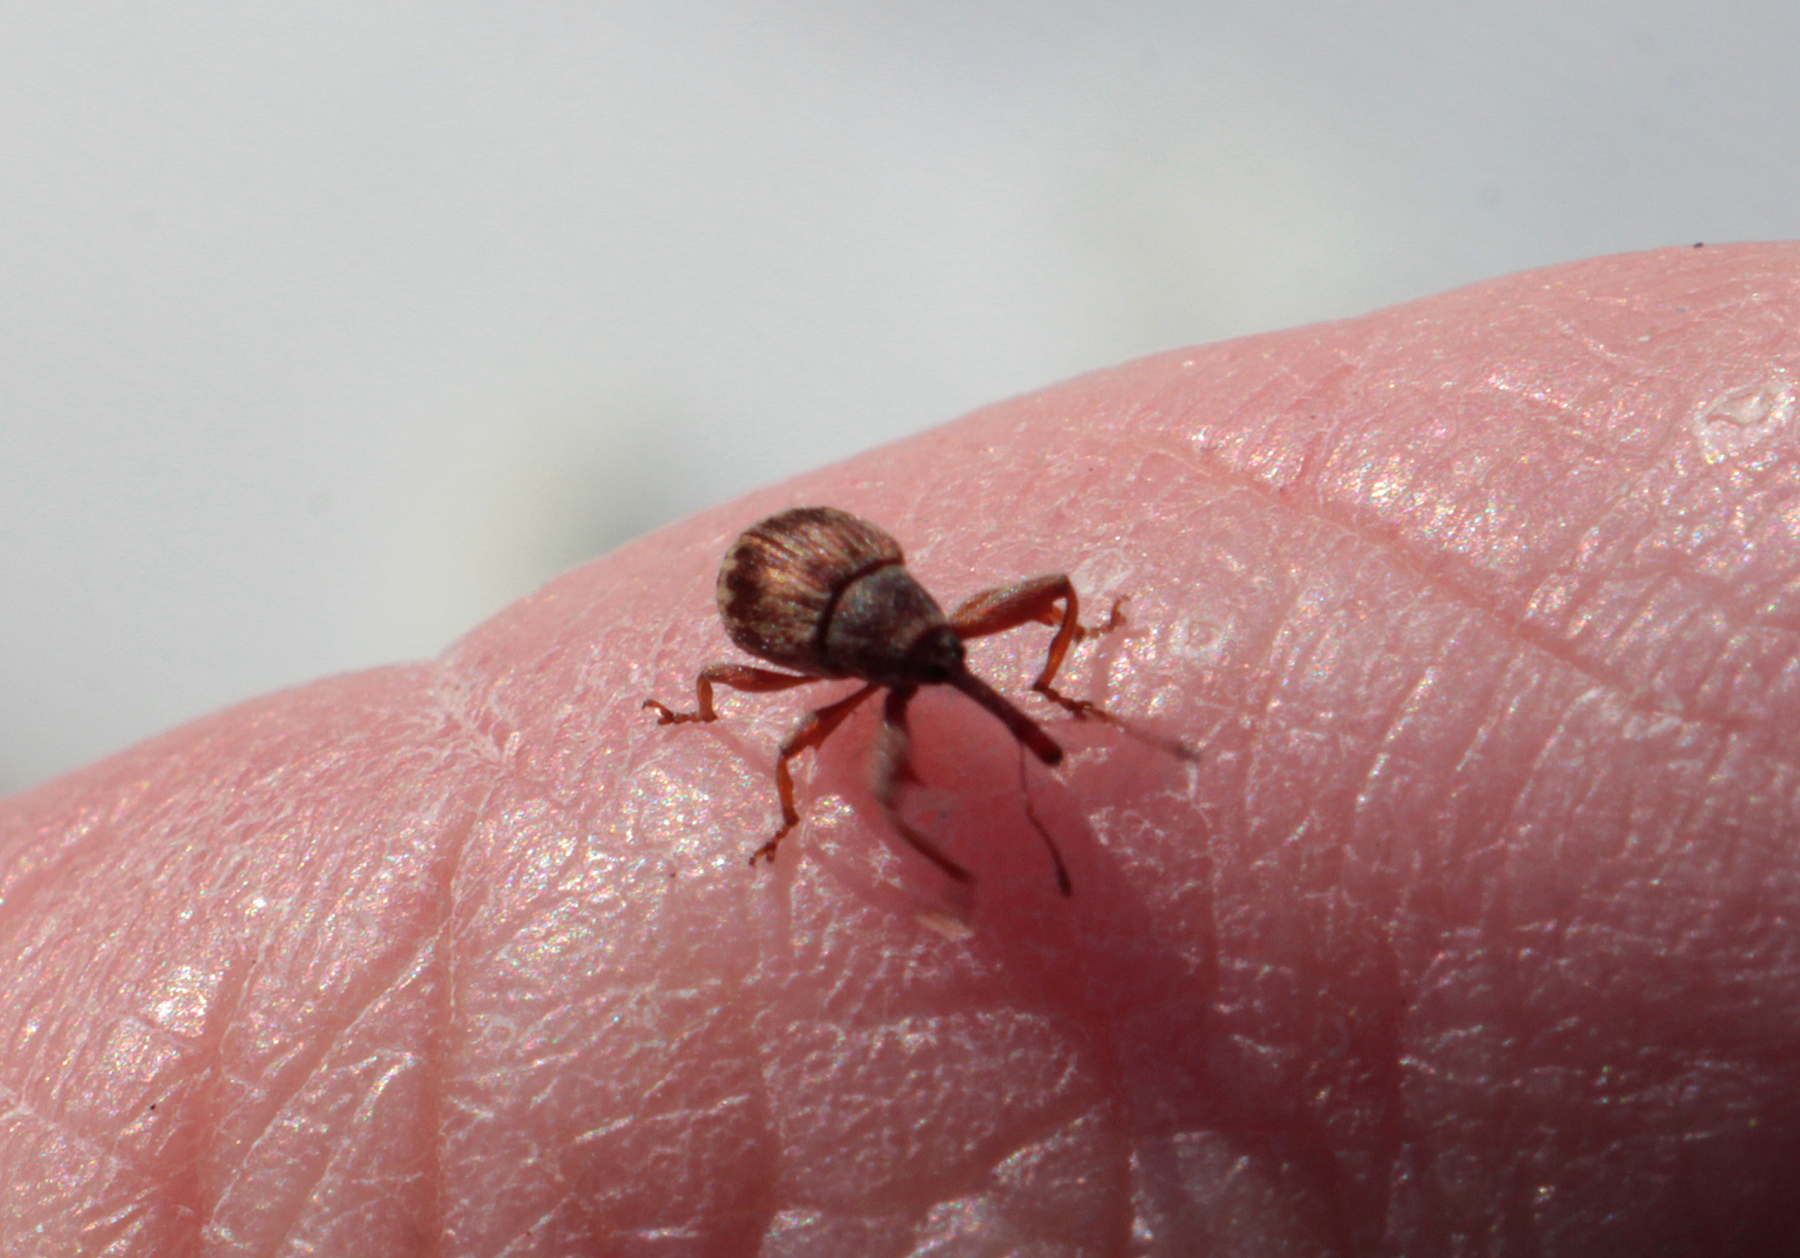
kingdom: Animalia
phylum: Arthropoda
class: Insecta
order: Coleoptera
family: Curculionidae
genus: Anthonomus
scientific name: Anthonomus rectirostris
